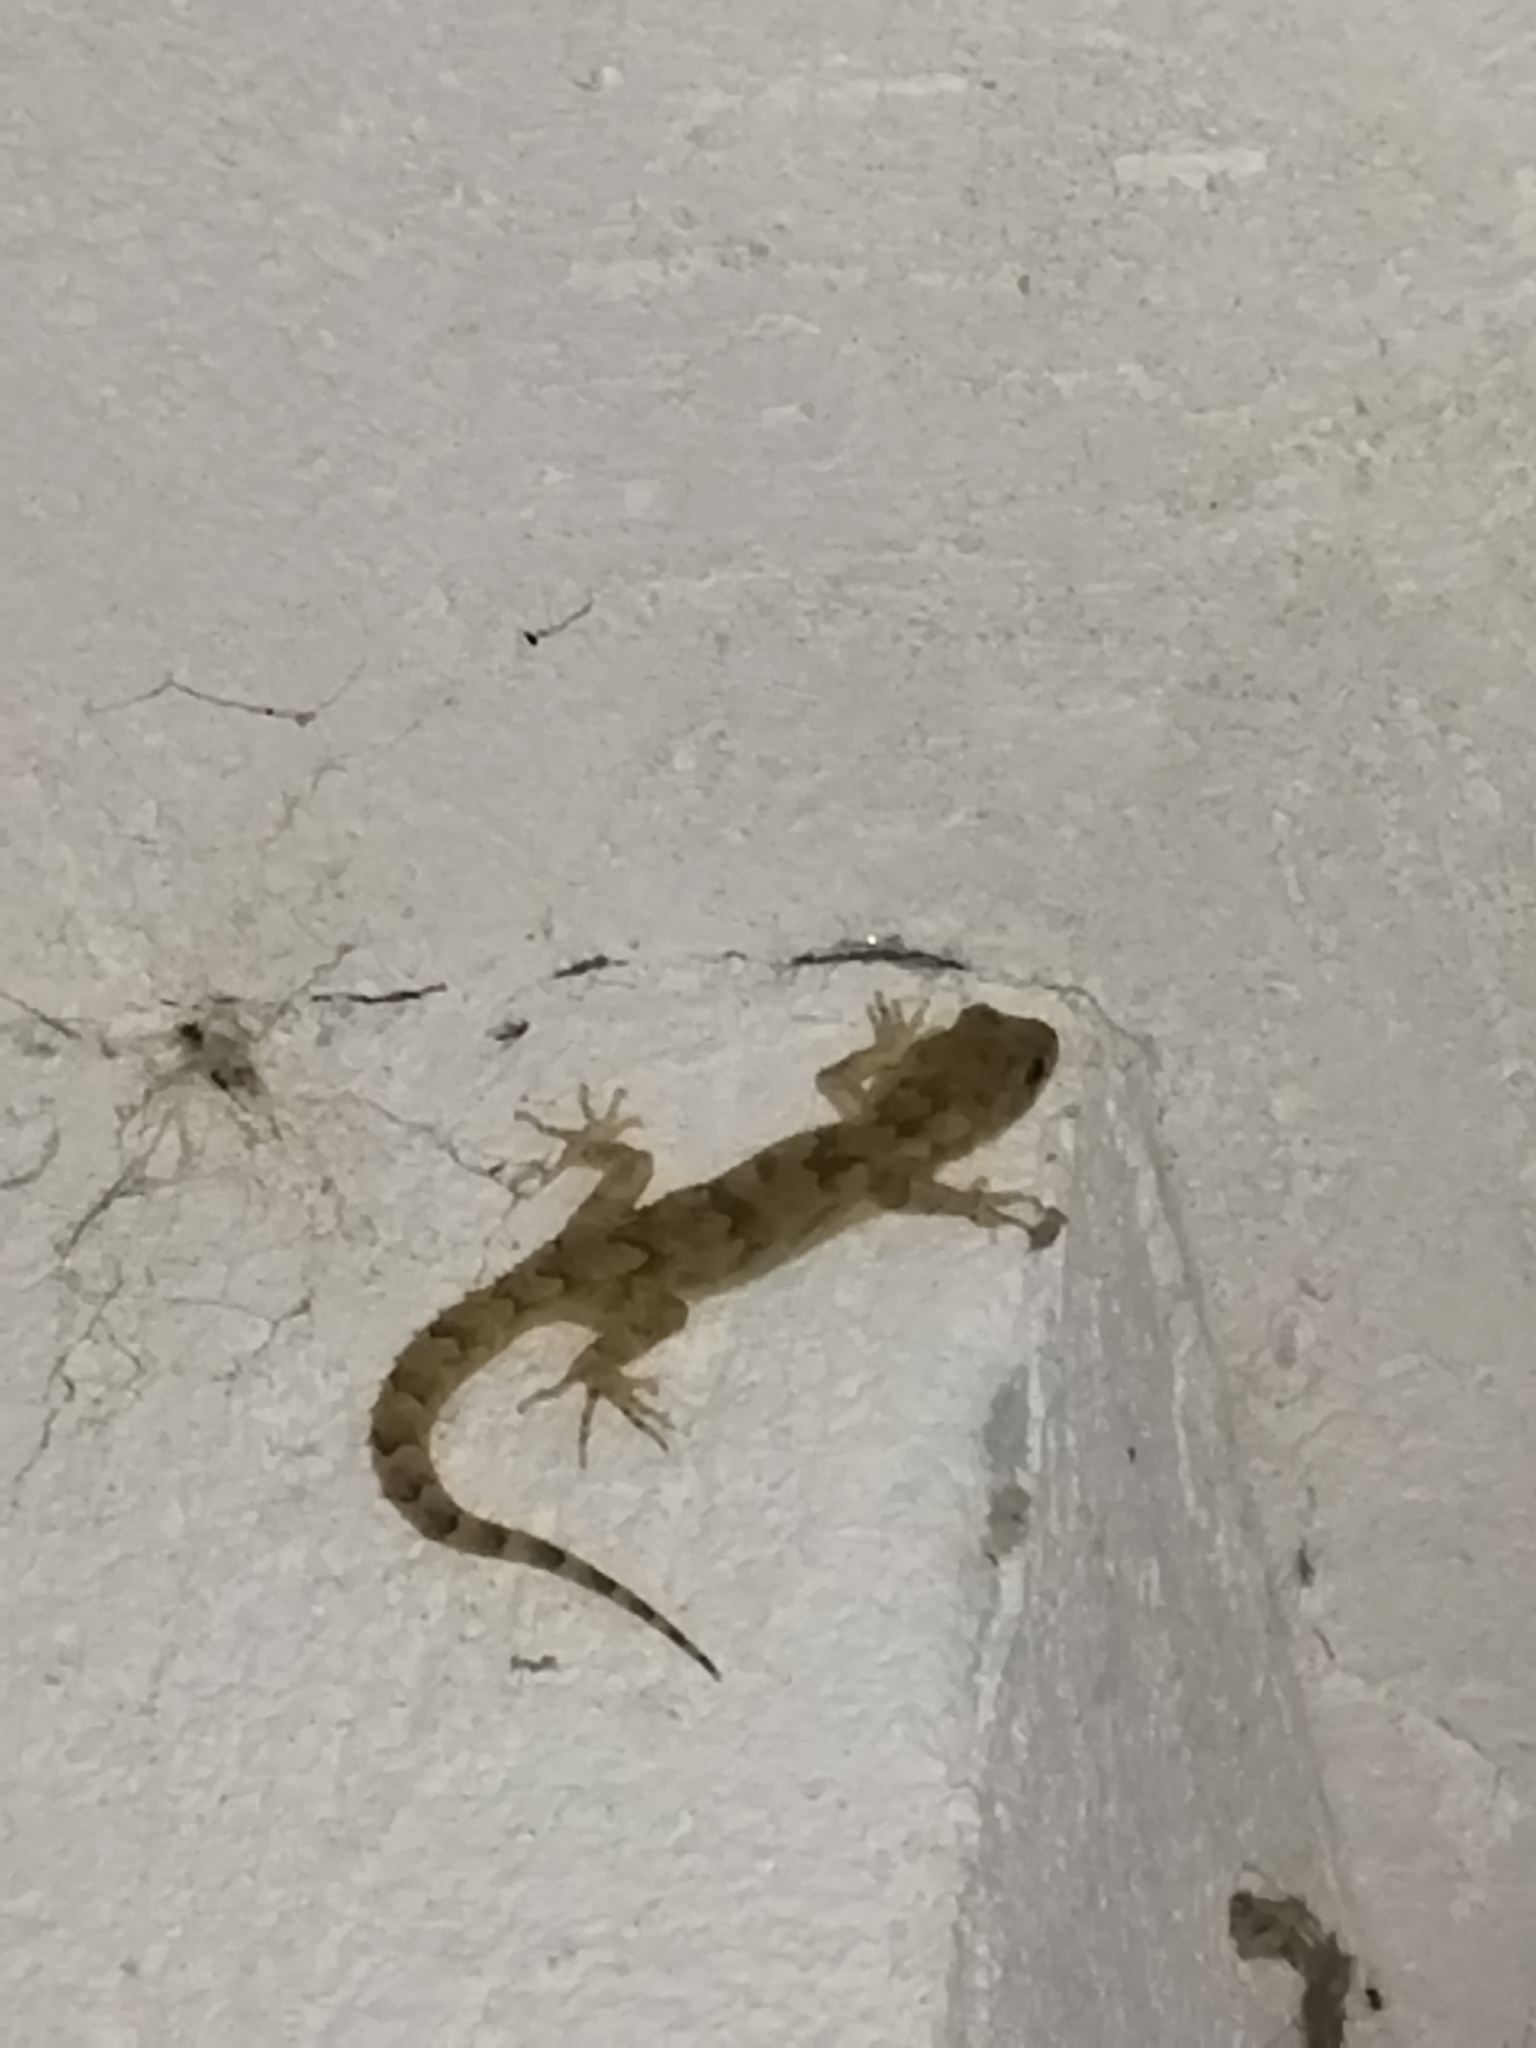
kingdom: Animalia
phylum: Chordata
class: Squamata
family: Gekkonidae
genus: Mediodactylus
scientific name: Mediodactylus kotschyi
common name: Kotschy's gecko
